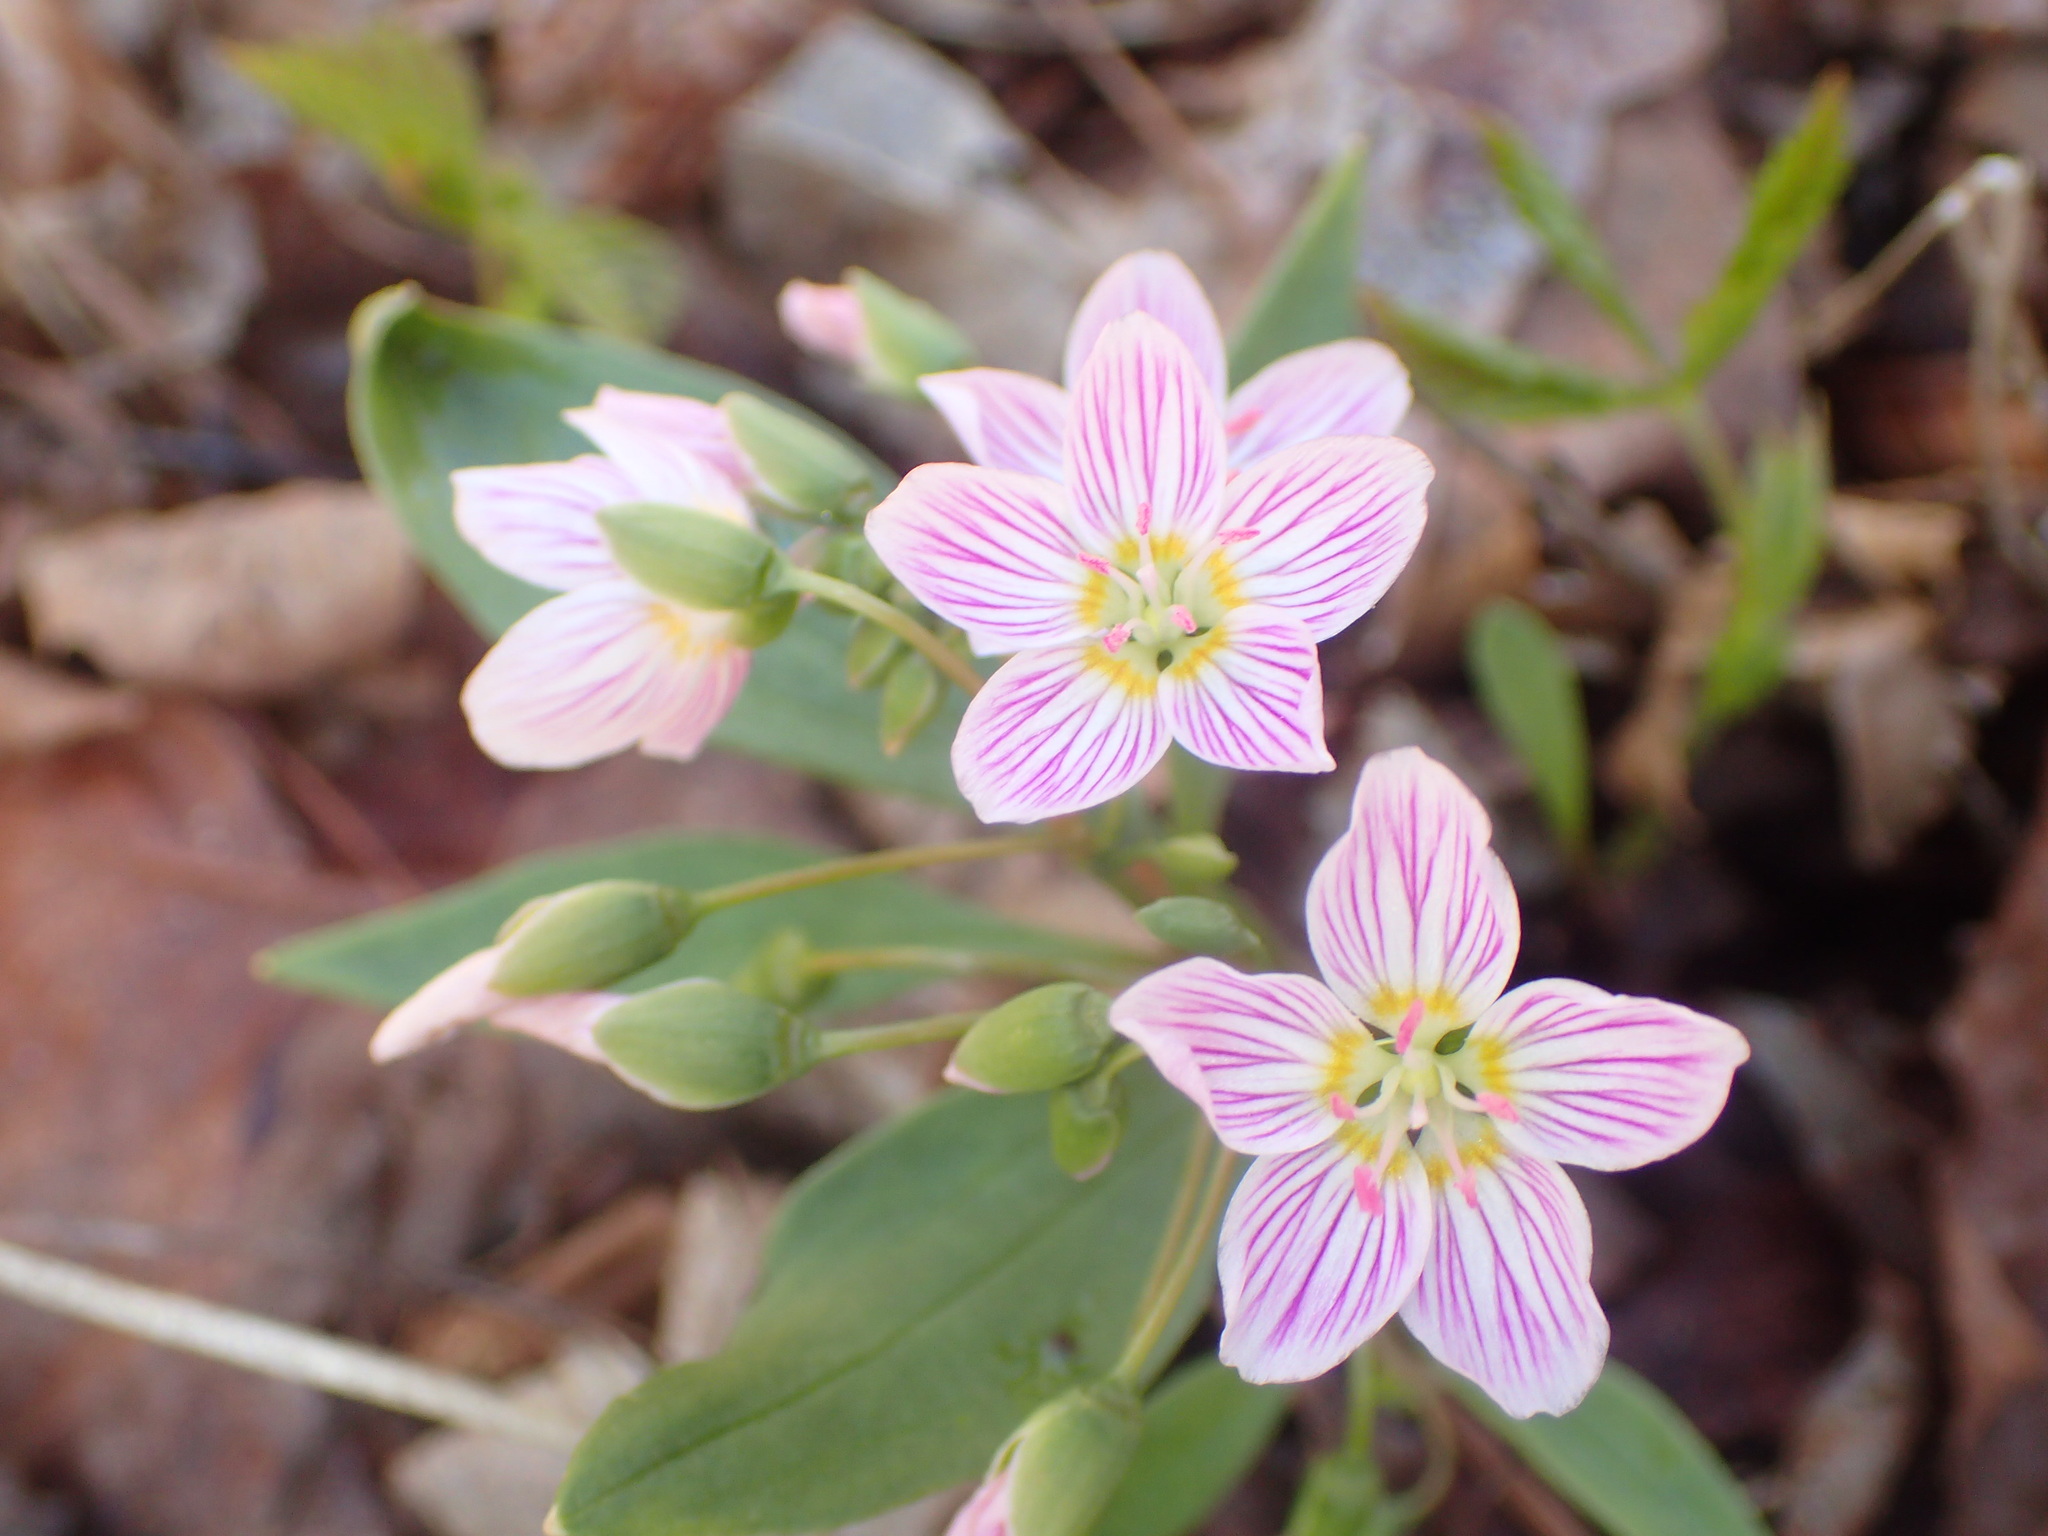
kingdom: Plantae
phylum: Tracheophyta
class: Magnoliopsida
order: Caryophyllales
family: Montiaceae
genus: Claytonia
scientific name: Claytonia caroliniana
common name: Carolina spring beauty
